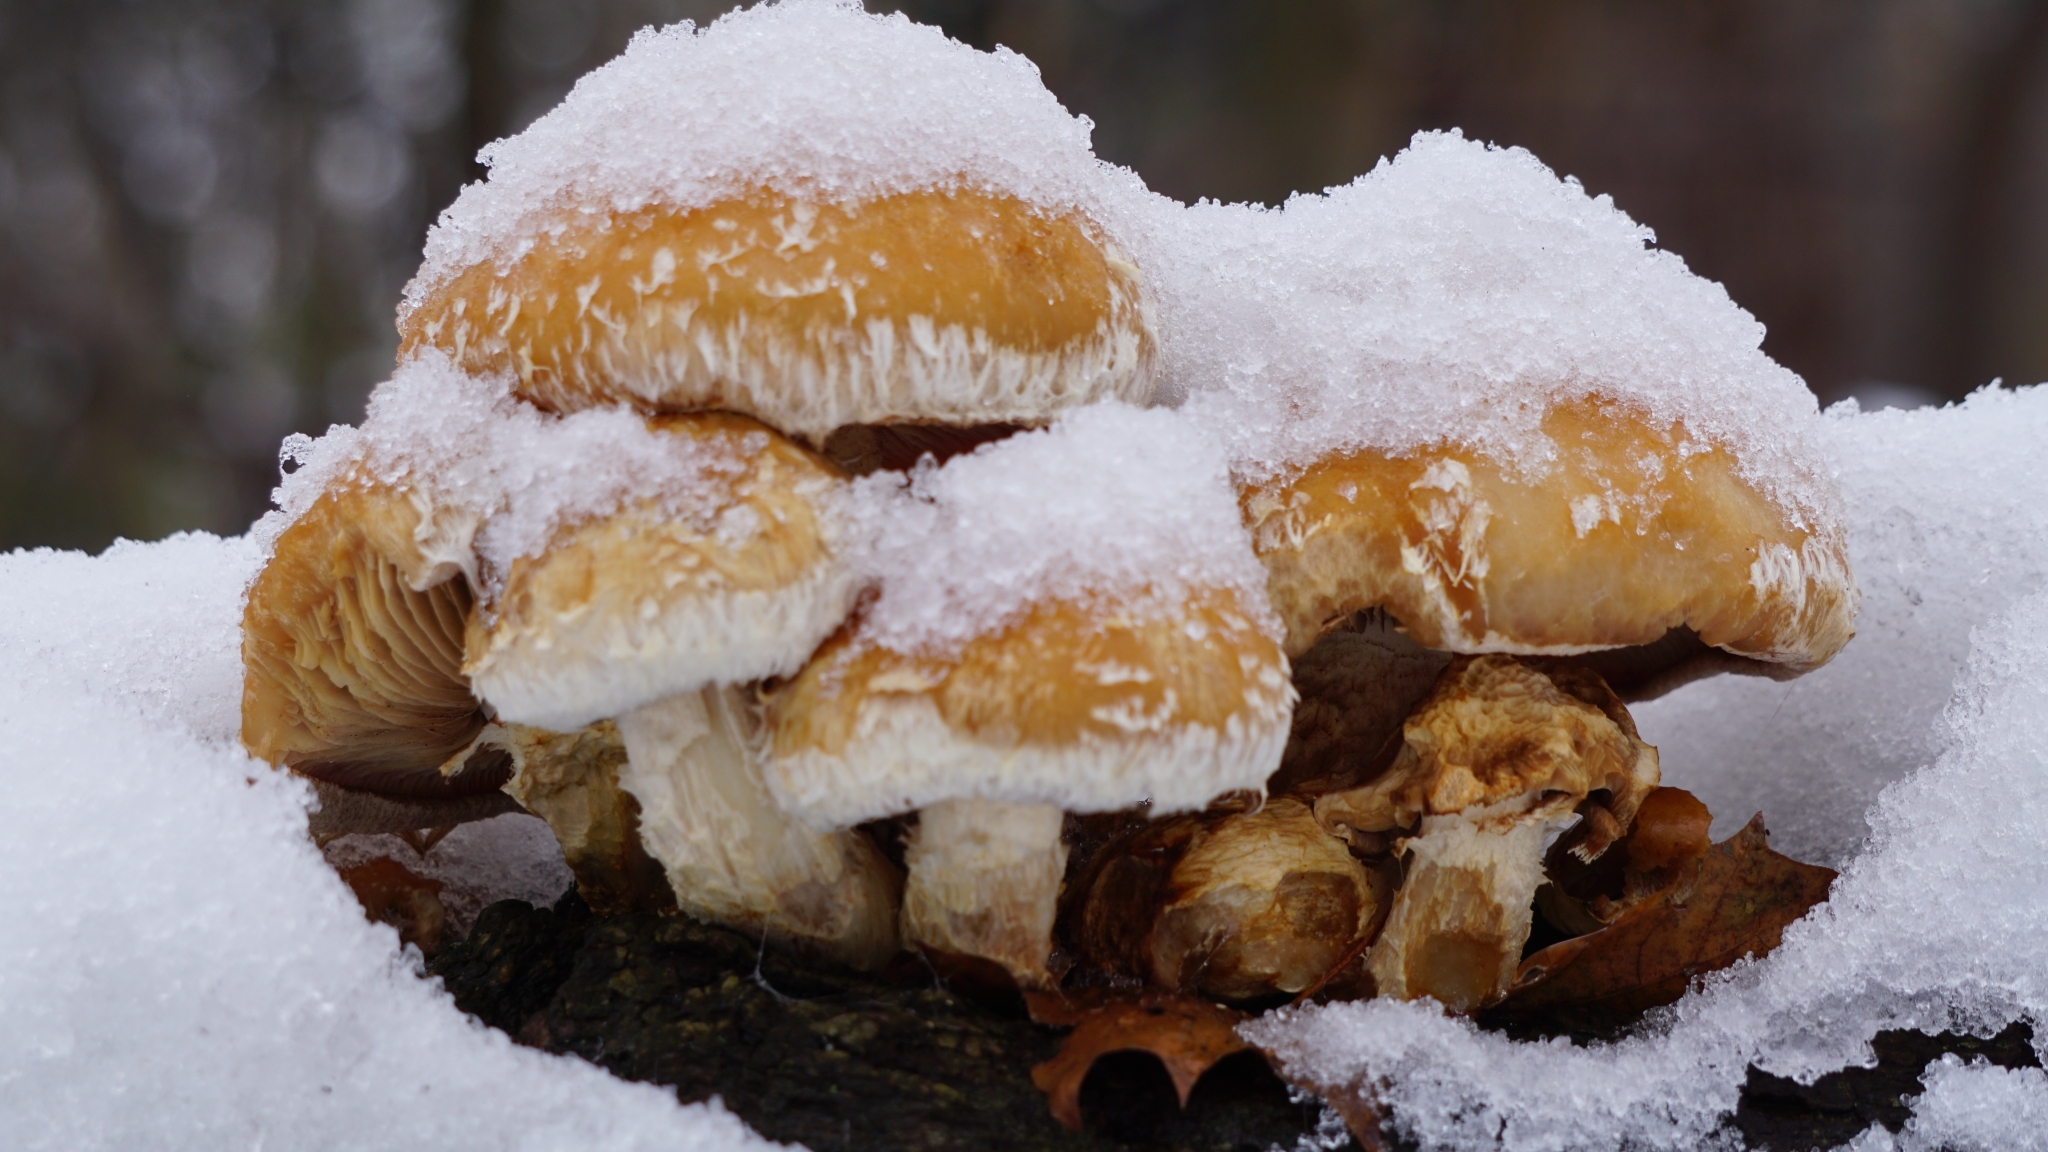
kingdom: Fungi
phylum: Basidiomycota
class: Agaricomycetes
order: Agaricales
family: Strophariaceae
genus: Pholiota
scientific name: Pholiota populnea
